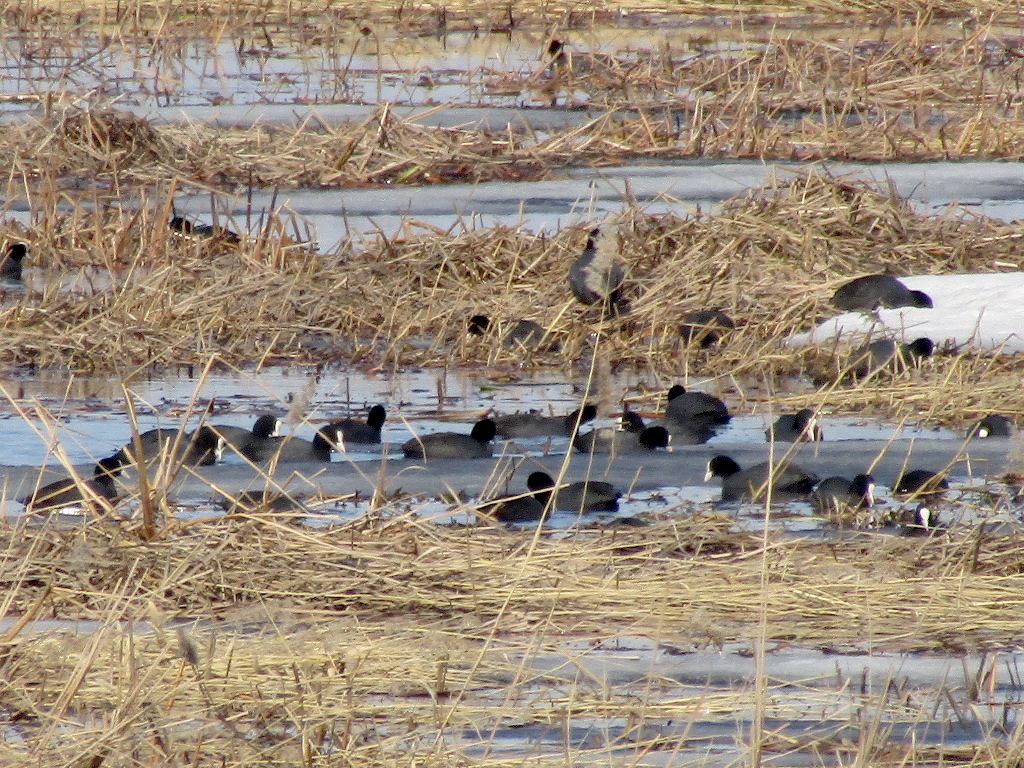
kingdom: Animalia
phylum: Chordata
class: Aves
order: Gruiformes
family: Rallidae
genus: Fulica
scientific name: Fulica atra
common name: Eurasian coot
